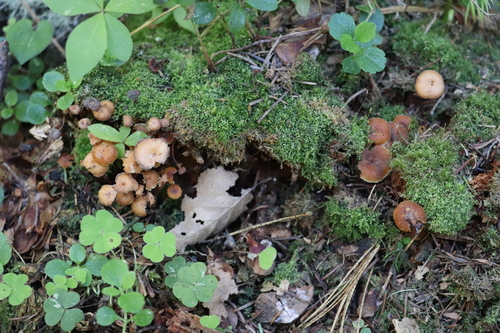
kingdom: Fungi
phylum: Basidiomycota
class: Agaricomycetes
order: Agaricales
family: Mycenaceae
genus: Xeromphalina
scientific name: Xeromphalina campanella
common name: Pinewood gingertail
